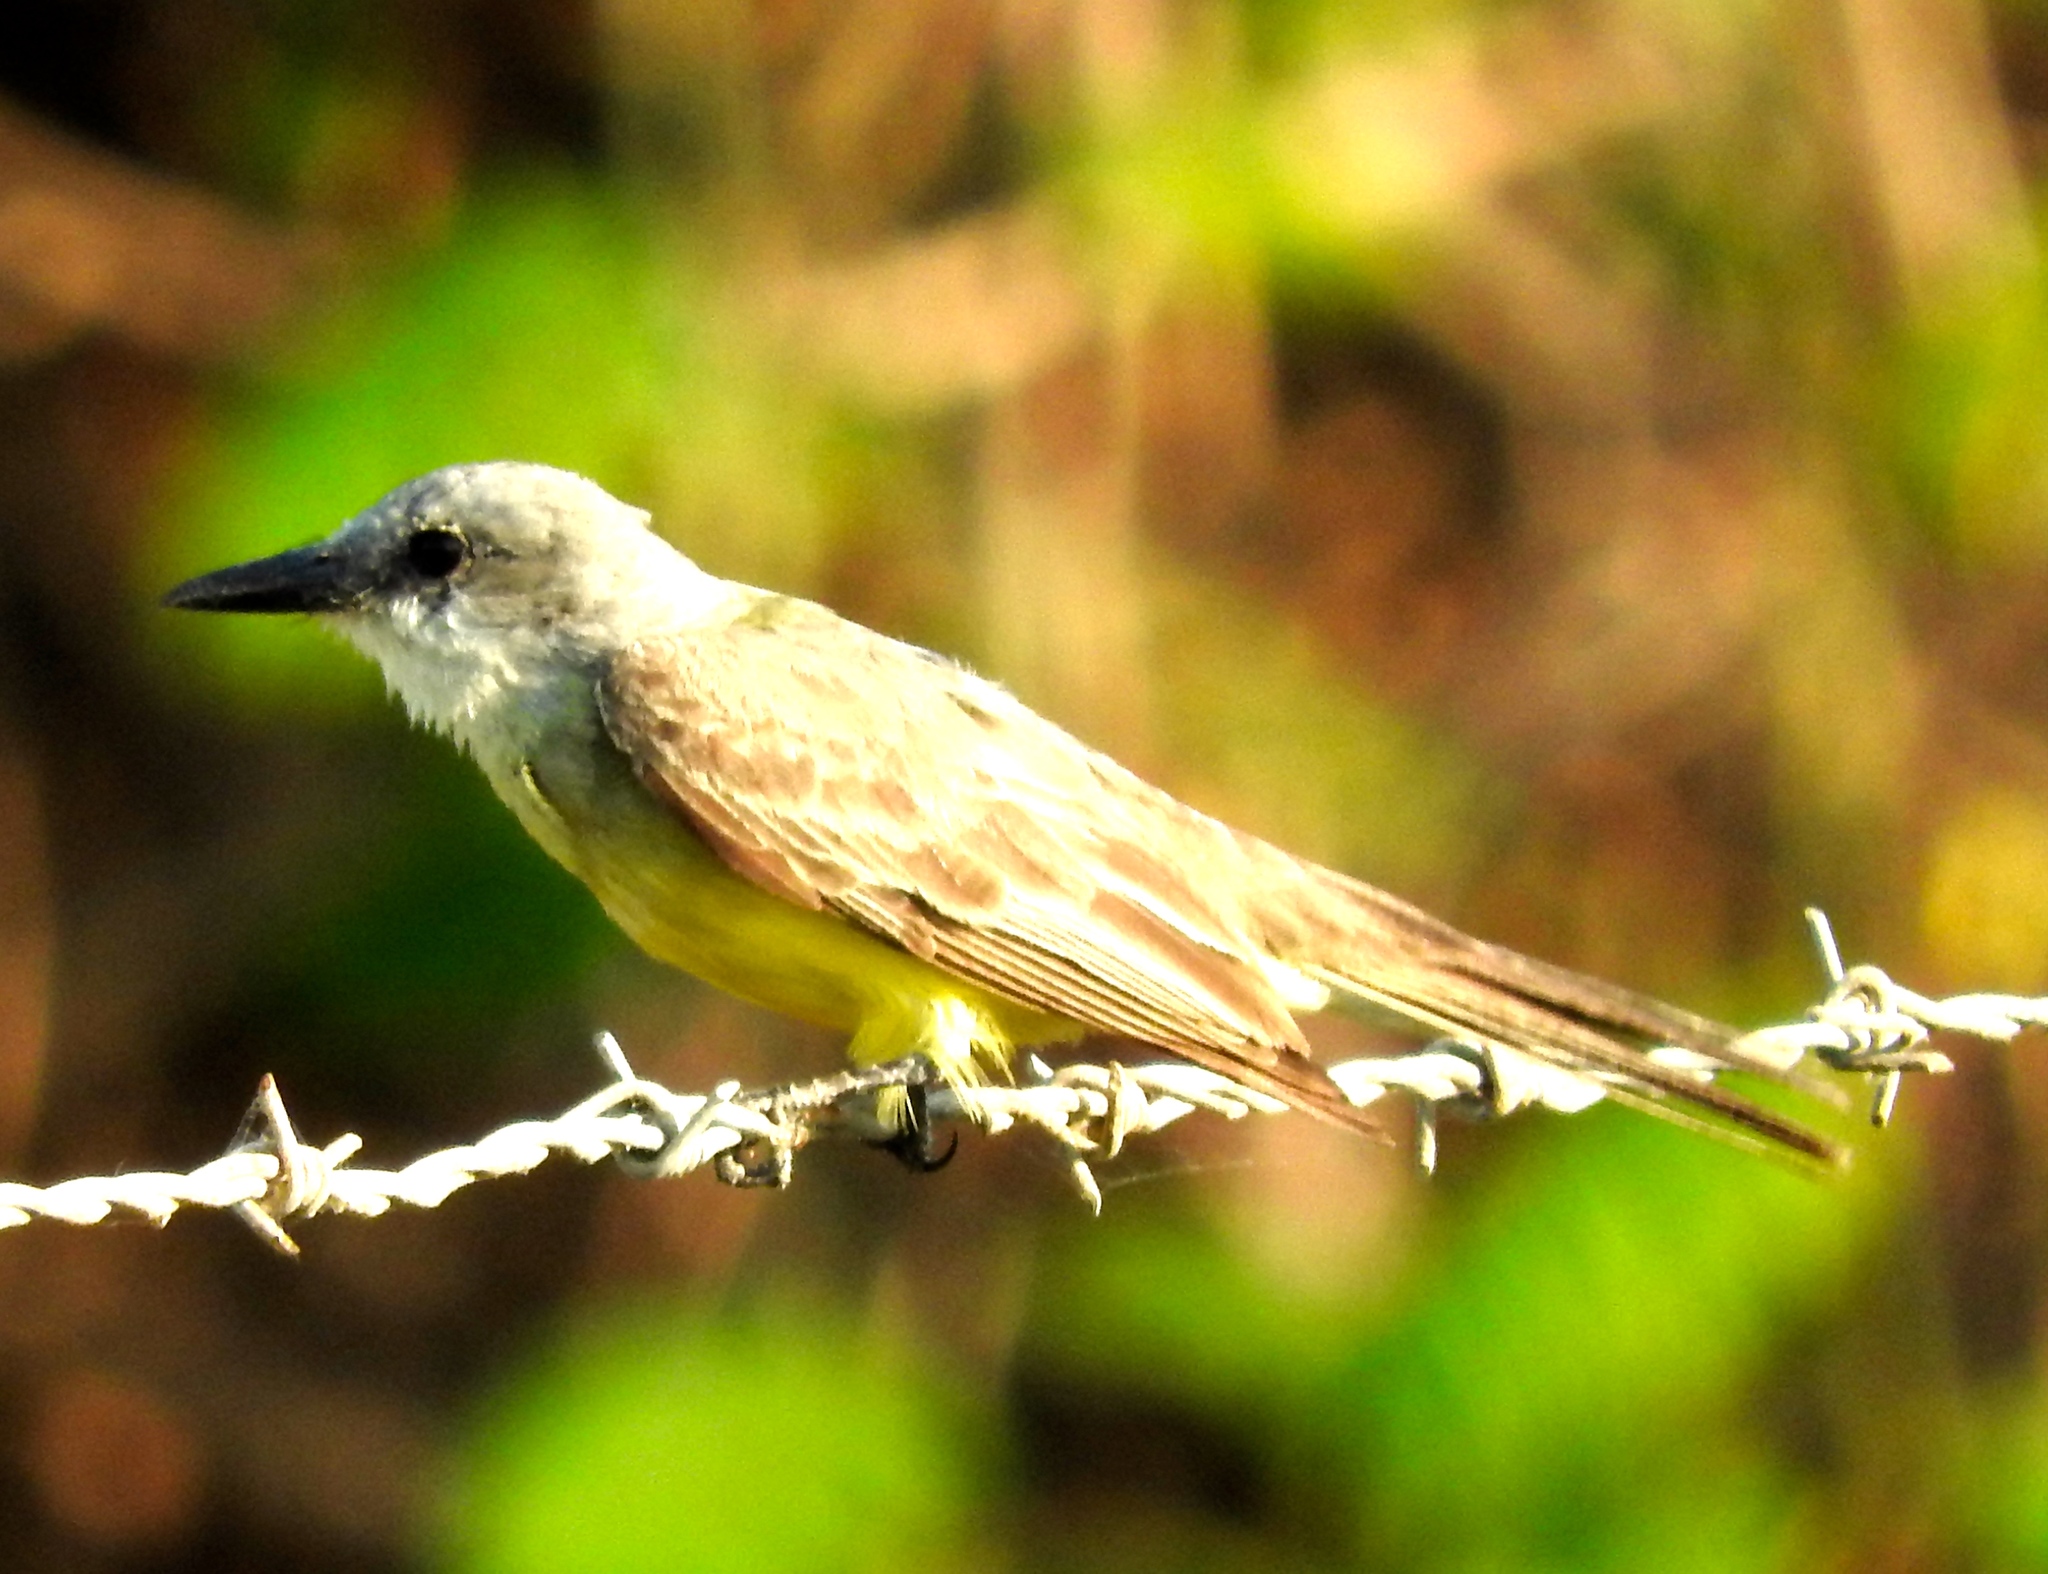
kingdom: Animalia
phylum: Chordata
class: Aves
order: Passeriformes
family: Tyrannidae
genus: Tyrannus
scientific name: Tyrannus melancholicus
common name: Tropical kingbird
